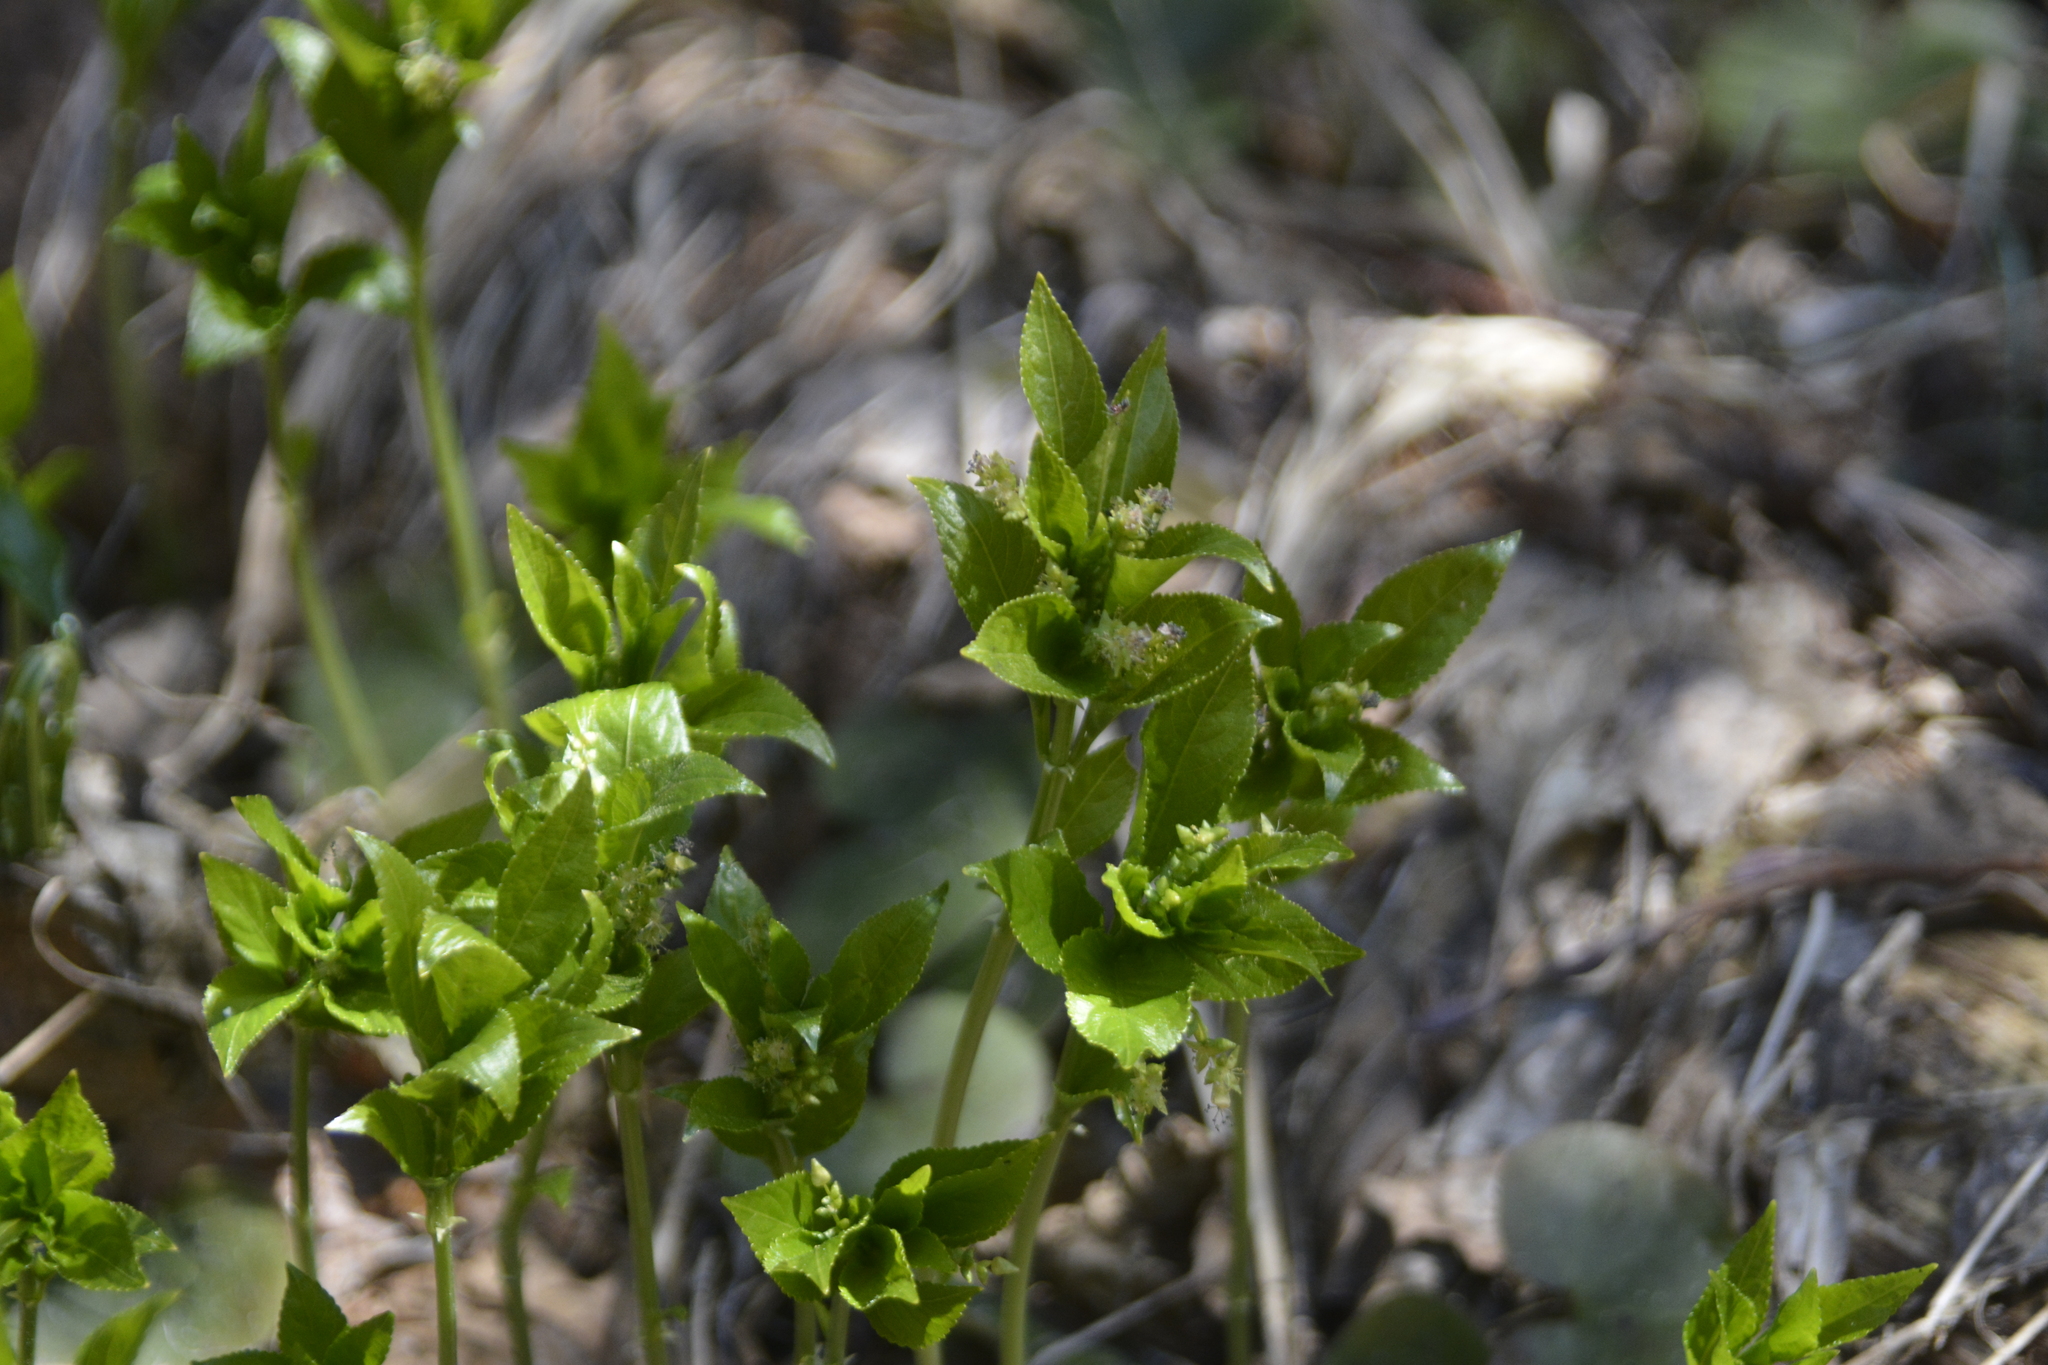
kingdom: Plantae
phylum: Tracheophyta
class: Magnoliopsida
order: Malpighiales
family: Euphorbiaceae
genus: Mercurialis
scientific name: Mercurialis perennis
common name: Dog mercury
